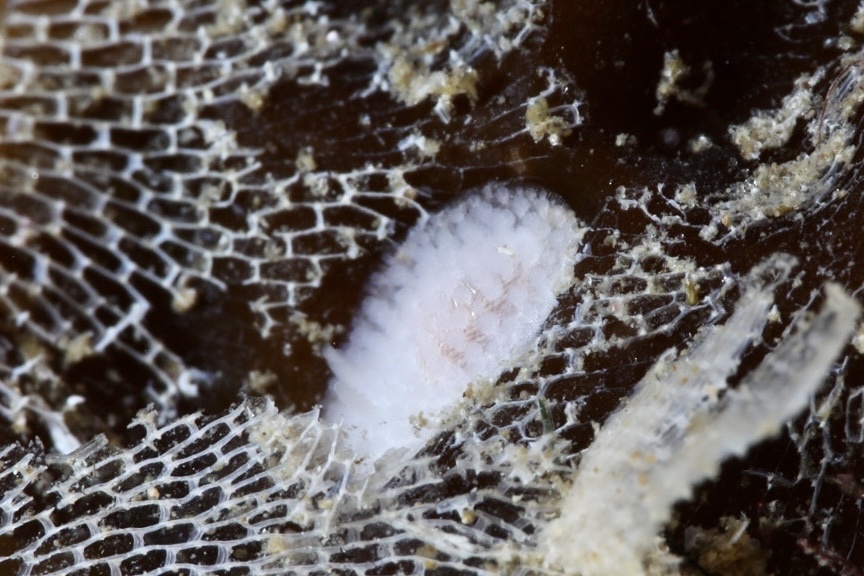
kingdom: Animalia
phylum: Mollusca
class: Gastropoda
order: Nudibranchia
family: Onchidorididae
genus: Onchidoris
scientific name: Onchidoris muricata
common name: Rough doris
